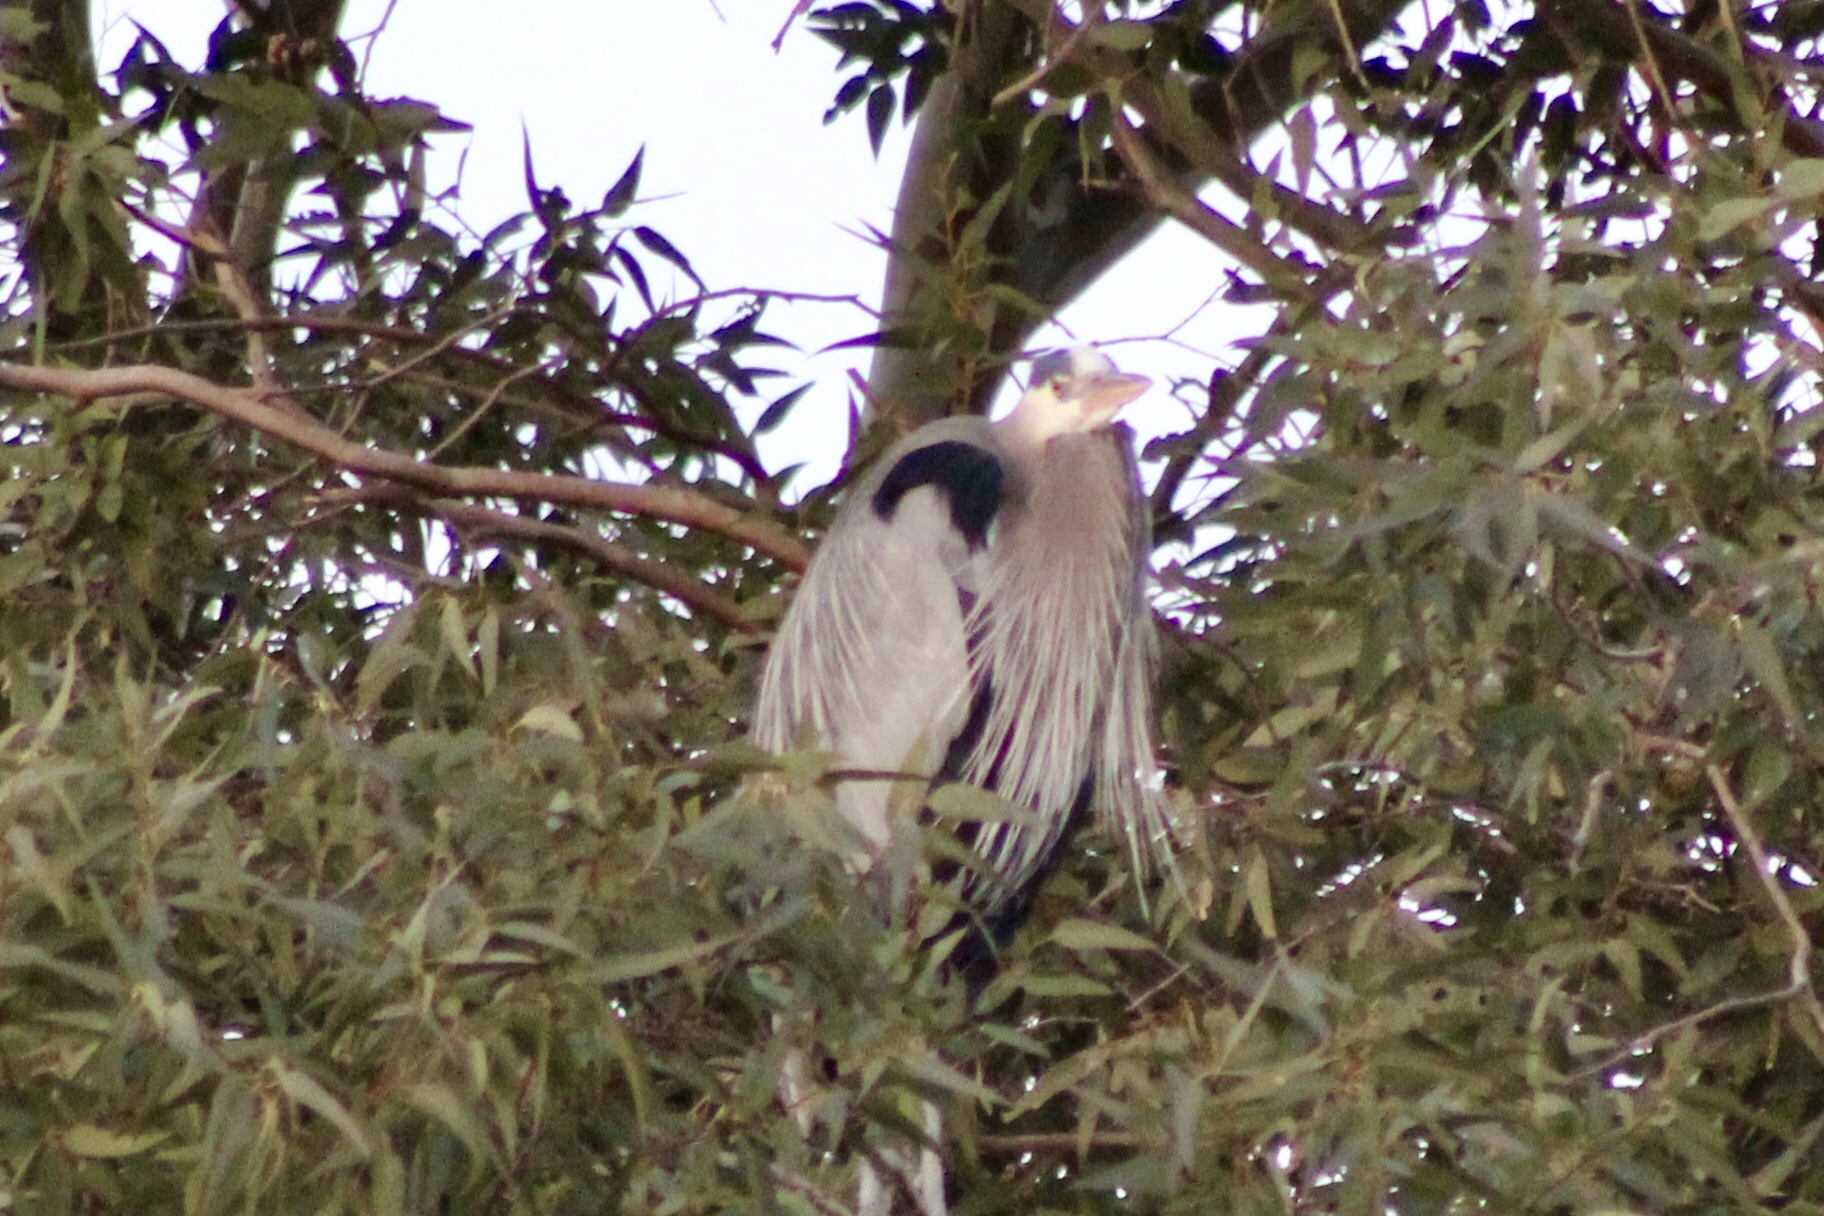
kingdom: Animalia
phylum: Chordata
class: Aves
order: Pelecaniformes
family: Ardeidae
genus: Ardea
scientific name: Ardea herodias
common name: Great blue heron
